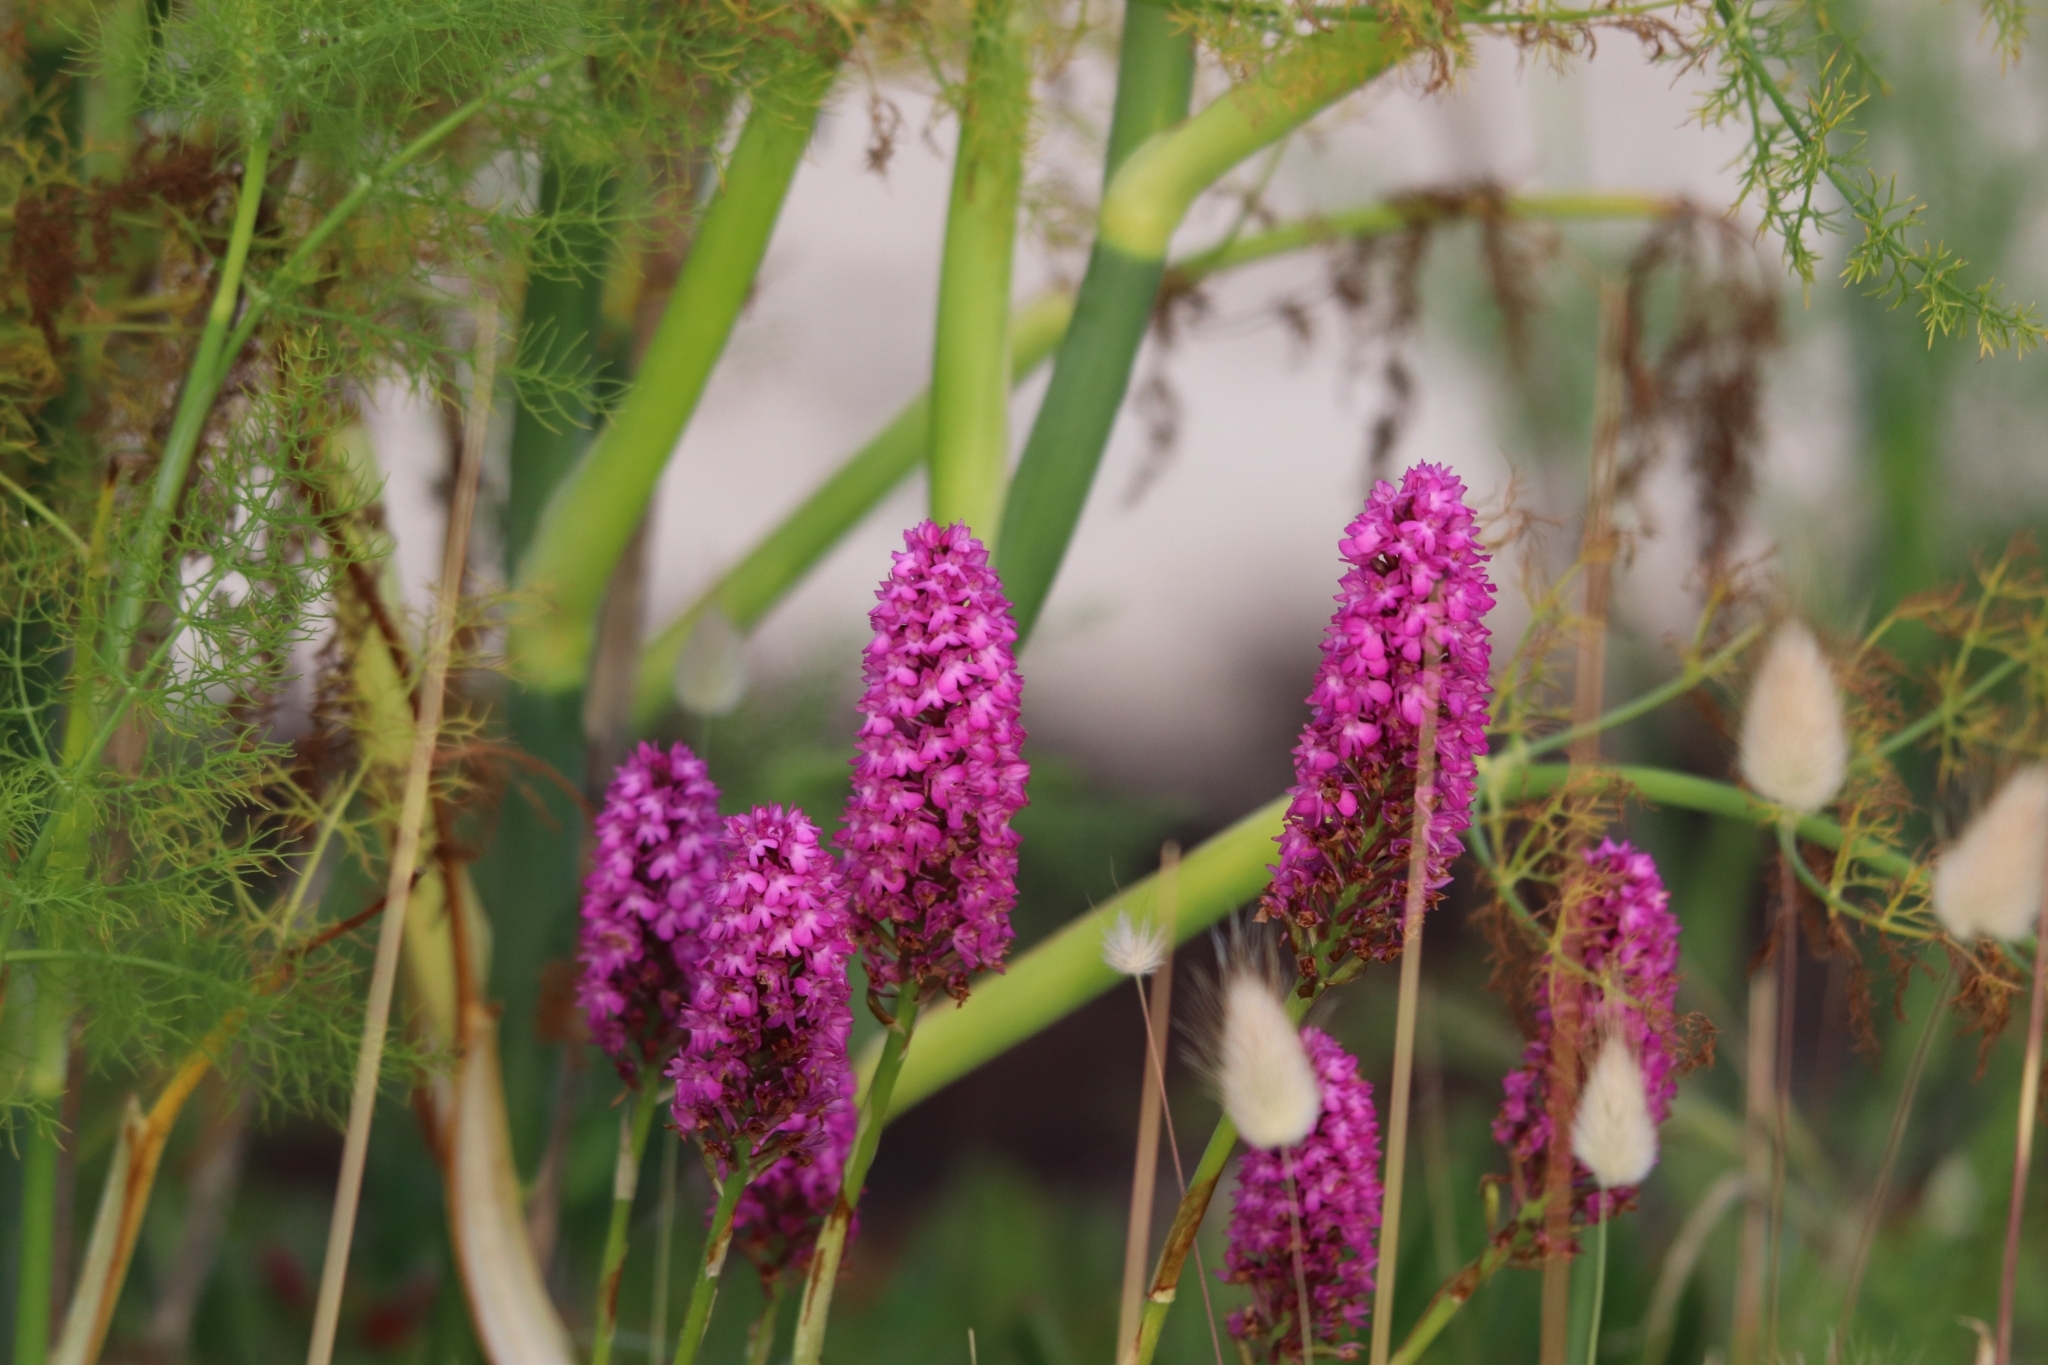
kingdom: Plantae
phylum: Tracheophyta
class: Liliopsida
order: Asparagales
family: Orchidaceae
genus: Anacamptis
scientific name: Anacamptis pyramidalis
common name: Pyramidal orchid
